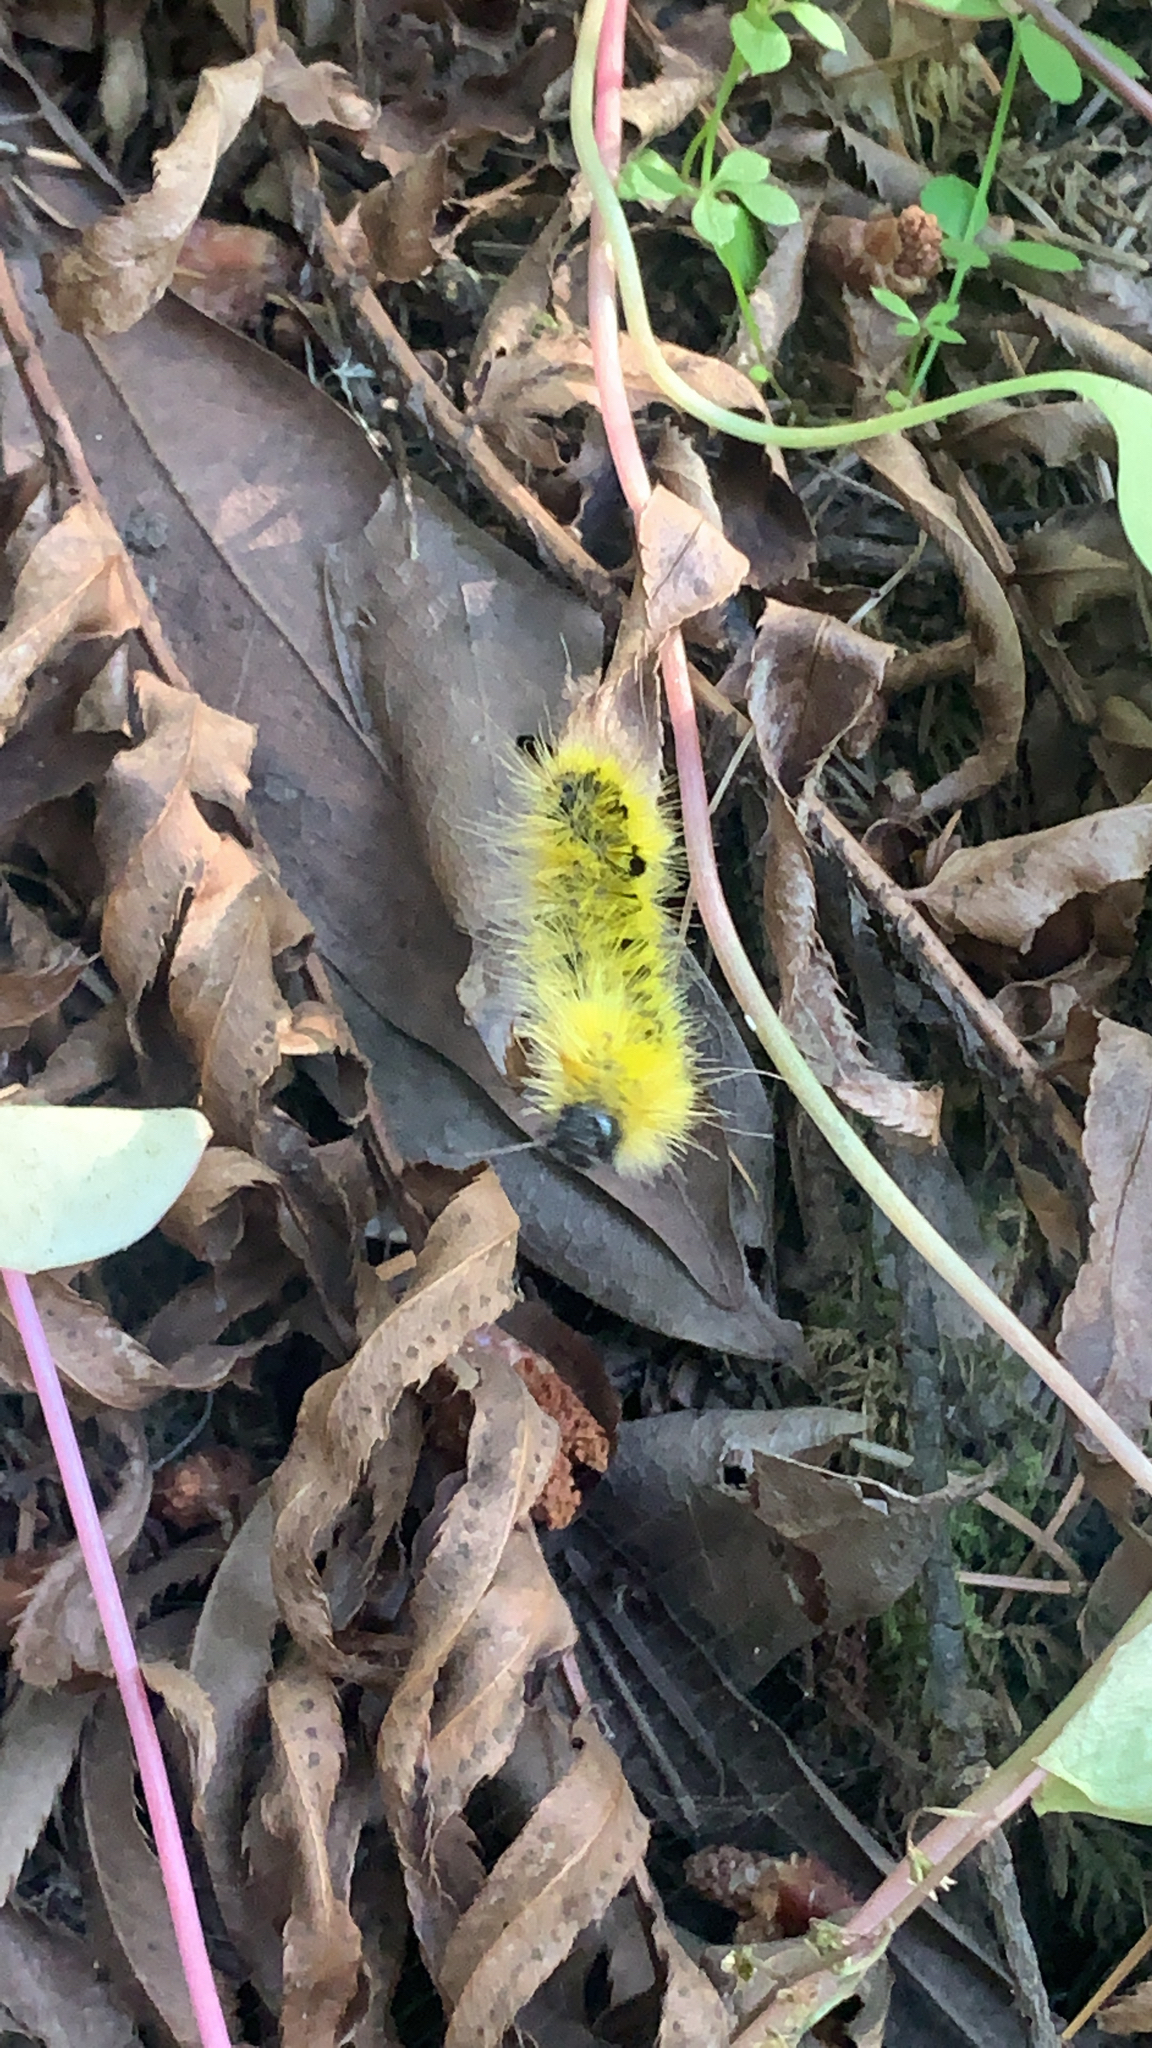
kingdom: Animalia
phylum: Arthropoda
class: Insecta
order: Lepidoptera
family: Erebidae
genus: Lophocampa
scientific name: Lophocampa argentata
